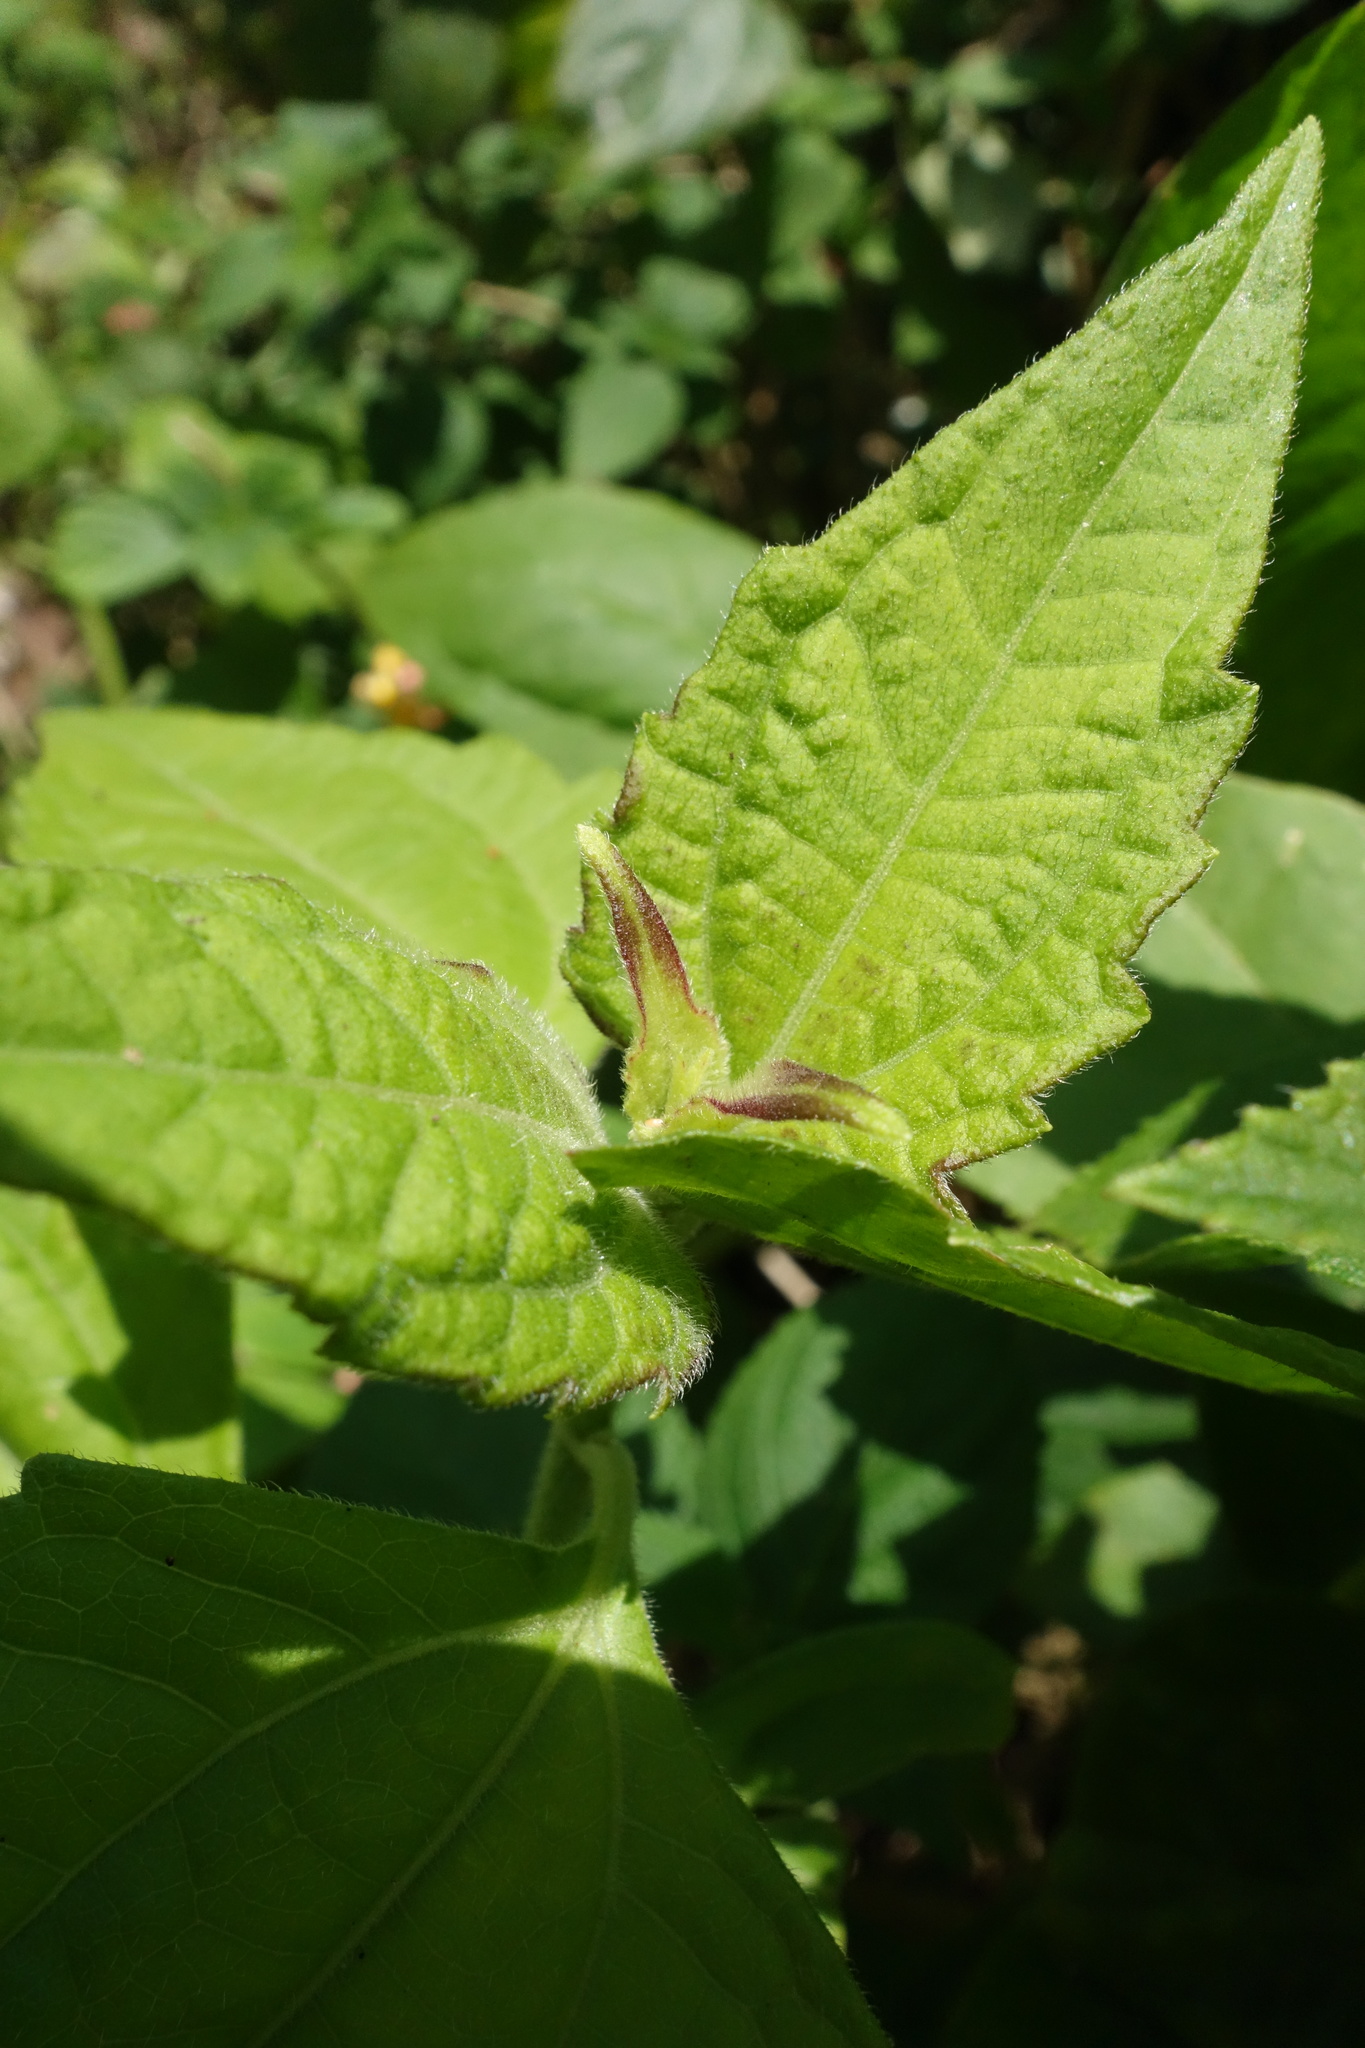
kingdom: Plantae
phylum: Tracheophyta
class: Magnoliopsida
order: Asterales
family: Asteraceae
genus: Chromolaena
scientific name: Chromolaena odorata
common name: Siamweed
